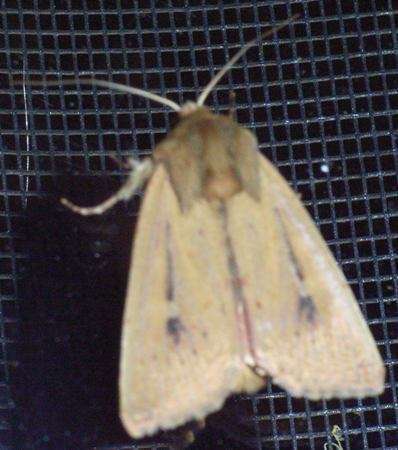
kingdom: Animalia
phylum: Arthropoda
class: Insecta
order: Lepidoptera
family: Noctuidae
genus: Leucania
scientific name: Leucania obusta
